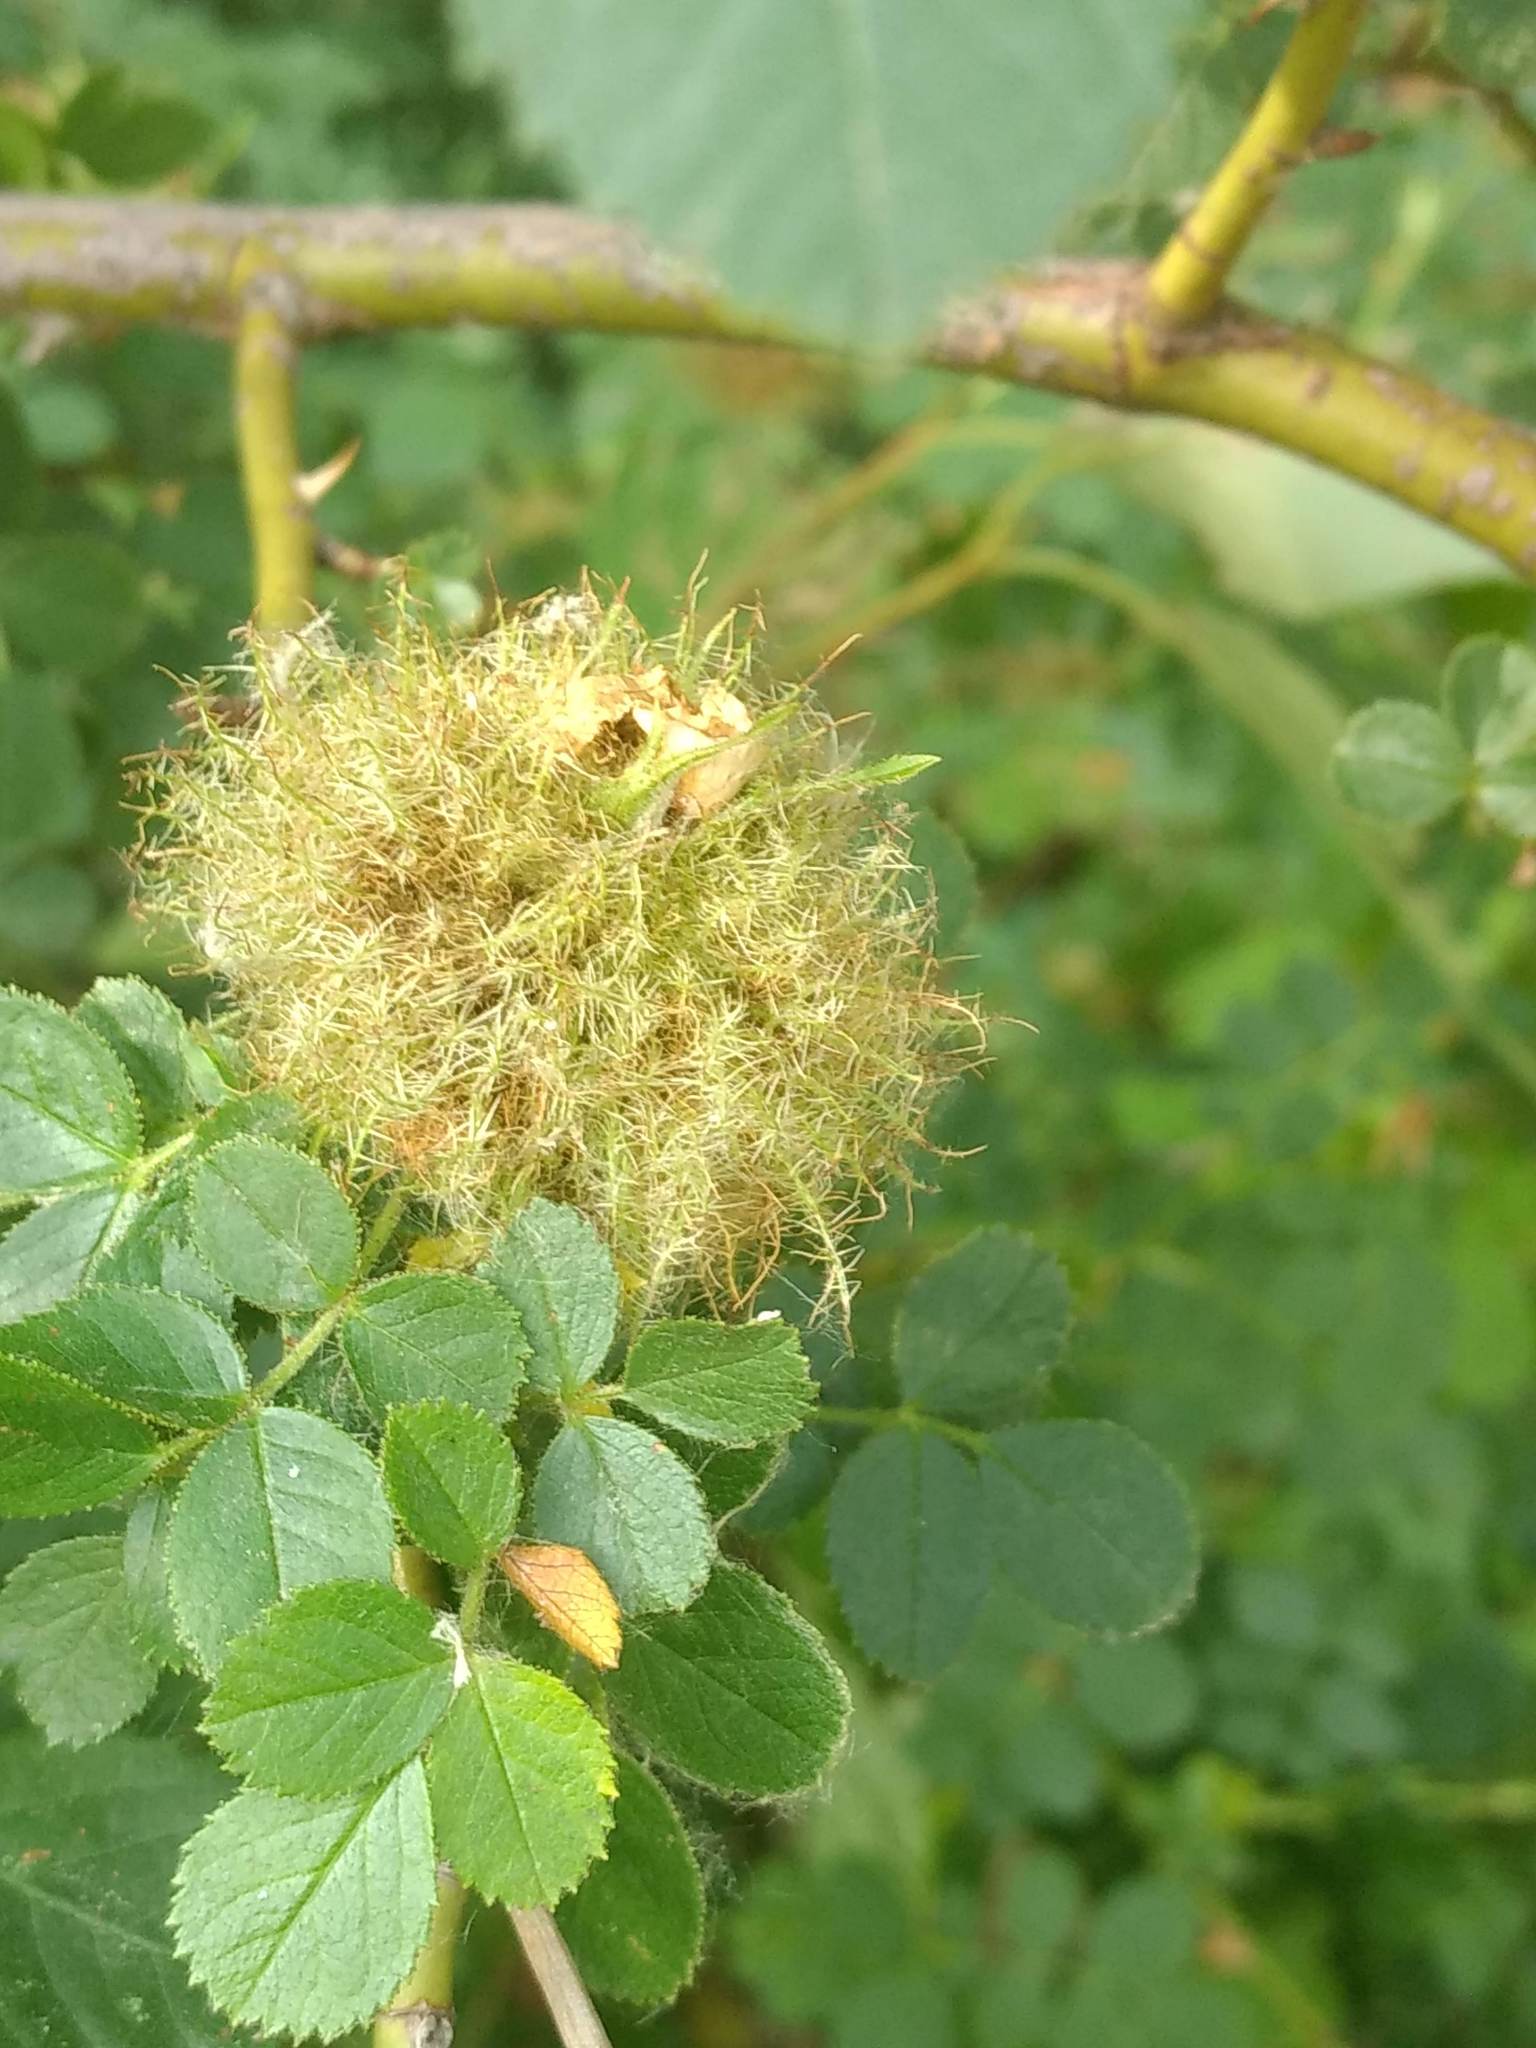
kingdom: Animalia
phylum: Arthropoda
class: Insecta
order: Hymenoptera
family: Cynipidae
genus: Diplolepis
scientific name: Diplolepis rosae
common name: Bedeguar gall
